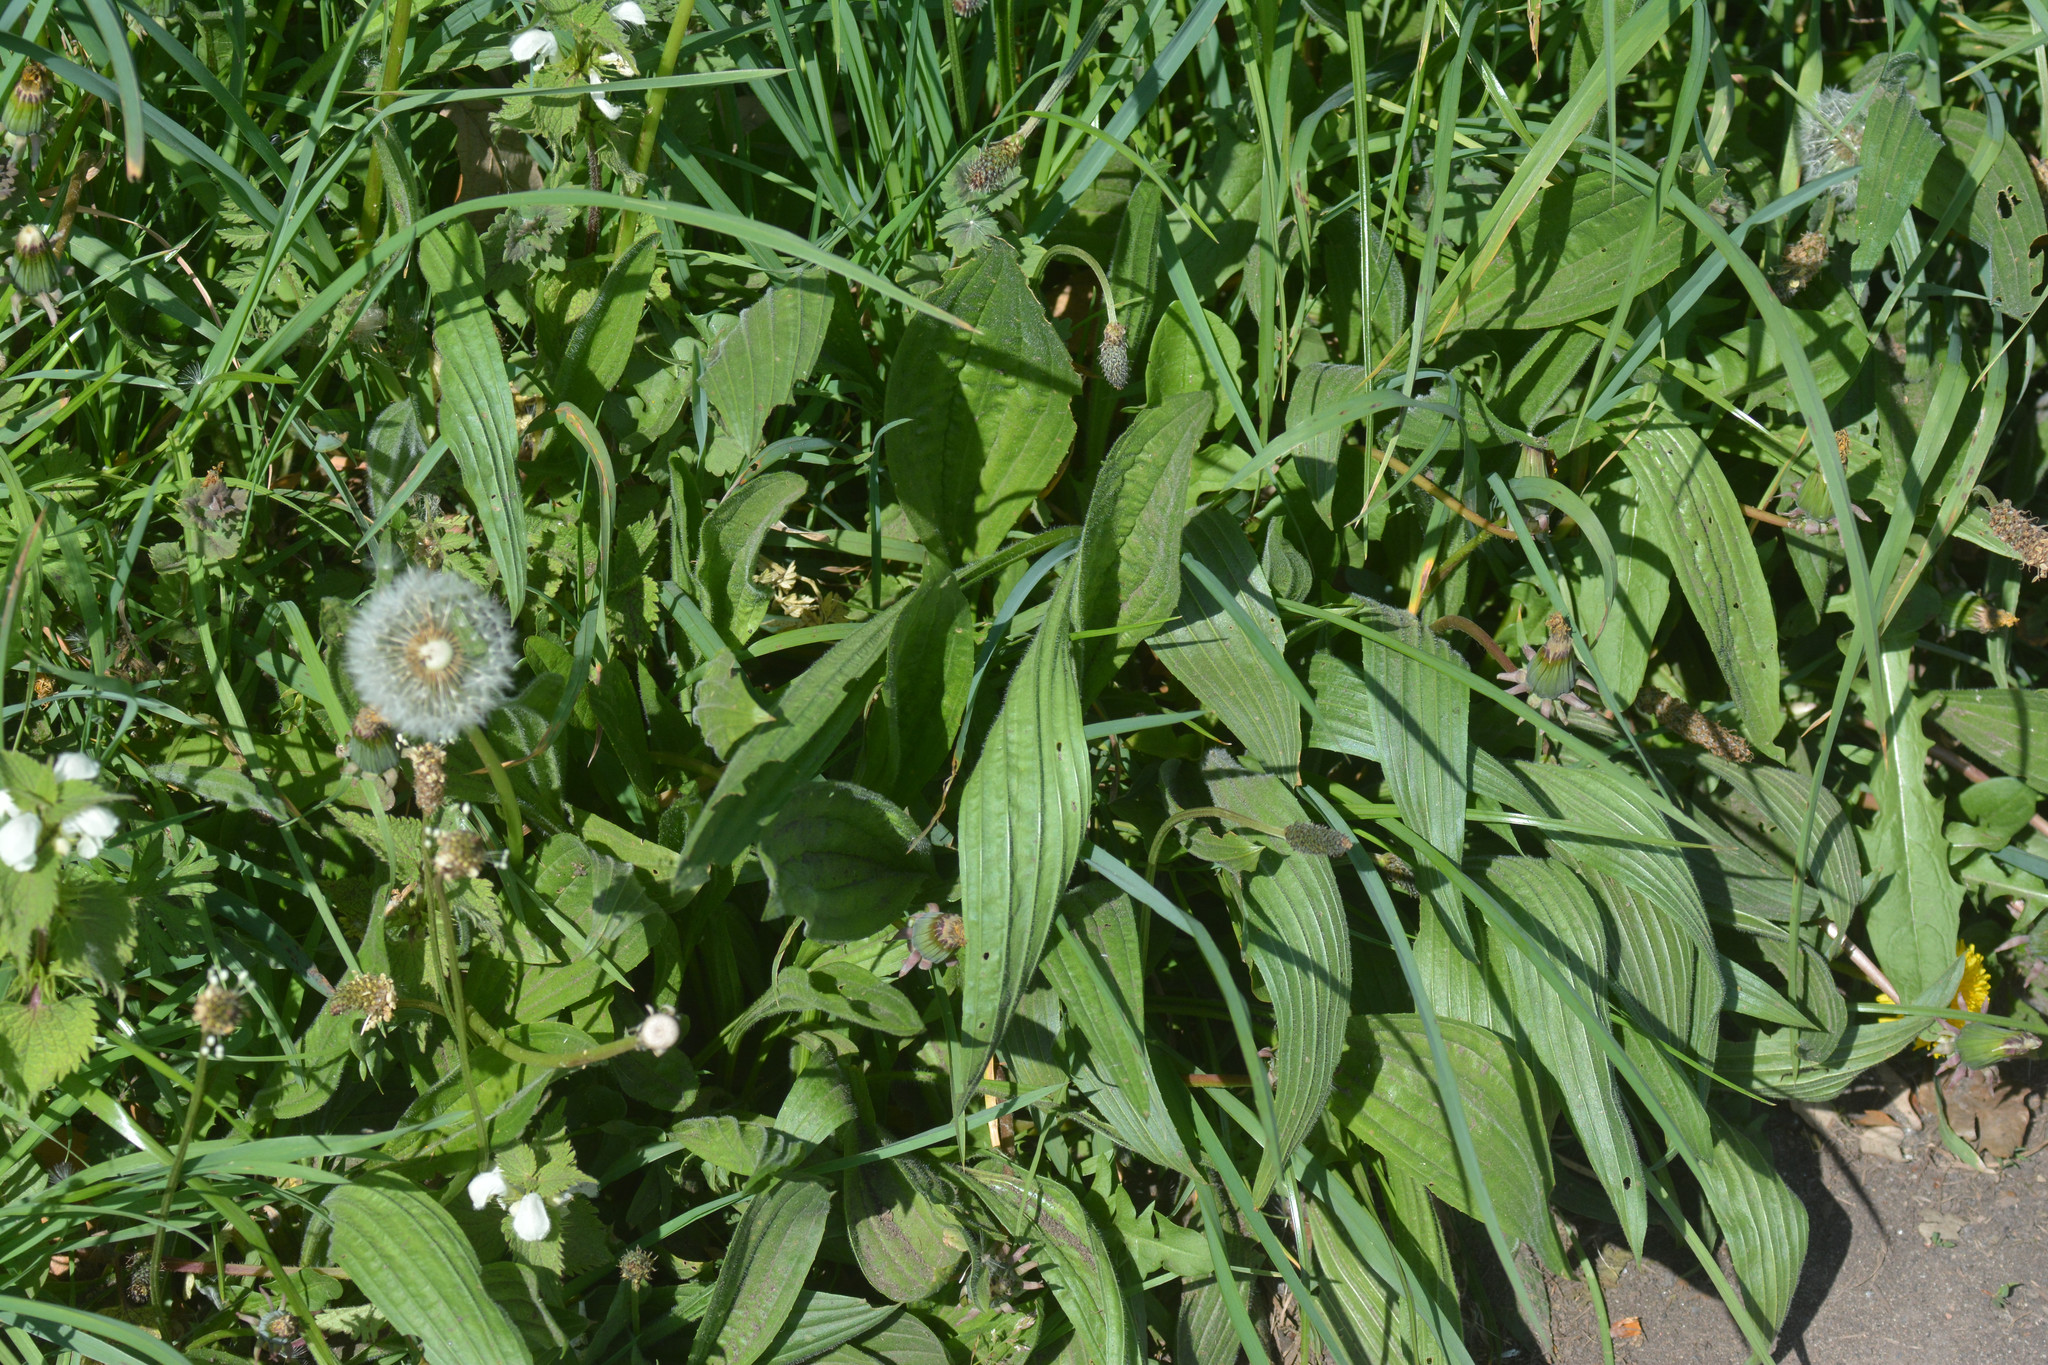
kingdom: Plantae
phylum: Tracheophyta
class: Magnoliopsida
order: Lamiales
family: Plantaginaceae
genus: Plantago
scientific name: Plantago lanceolata
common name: Ribwort plantain
